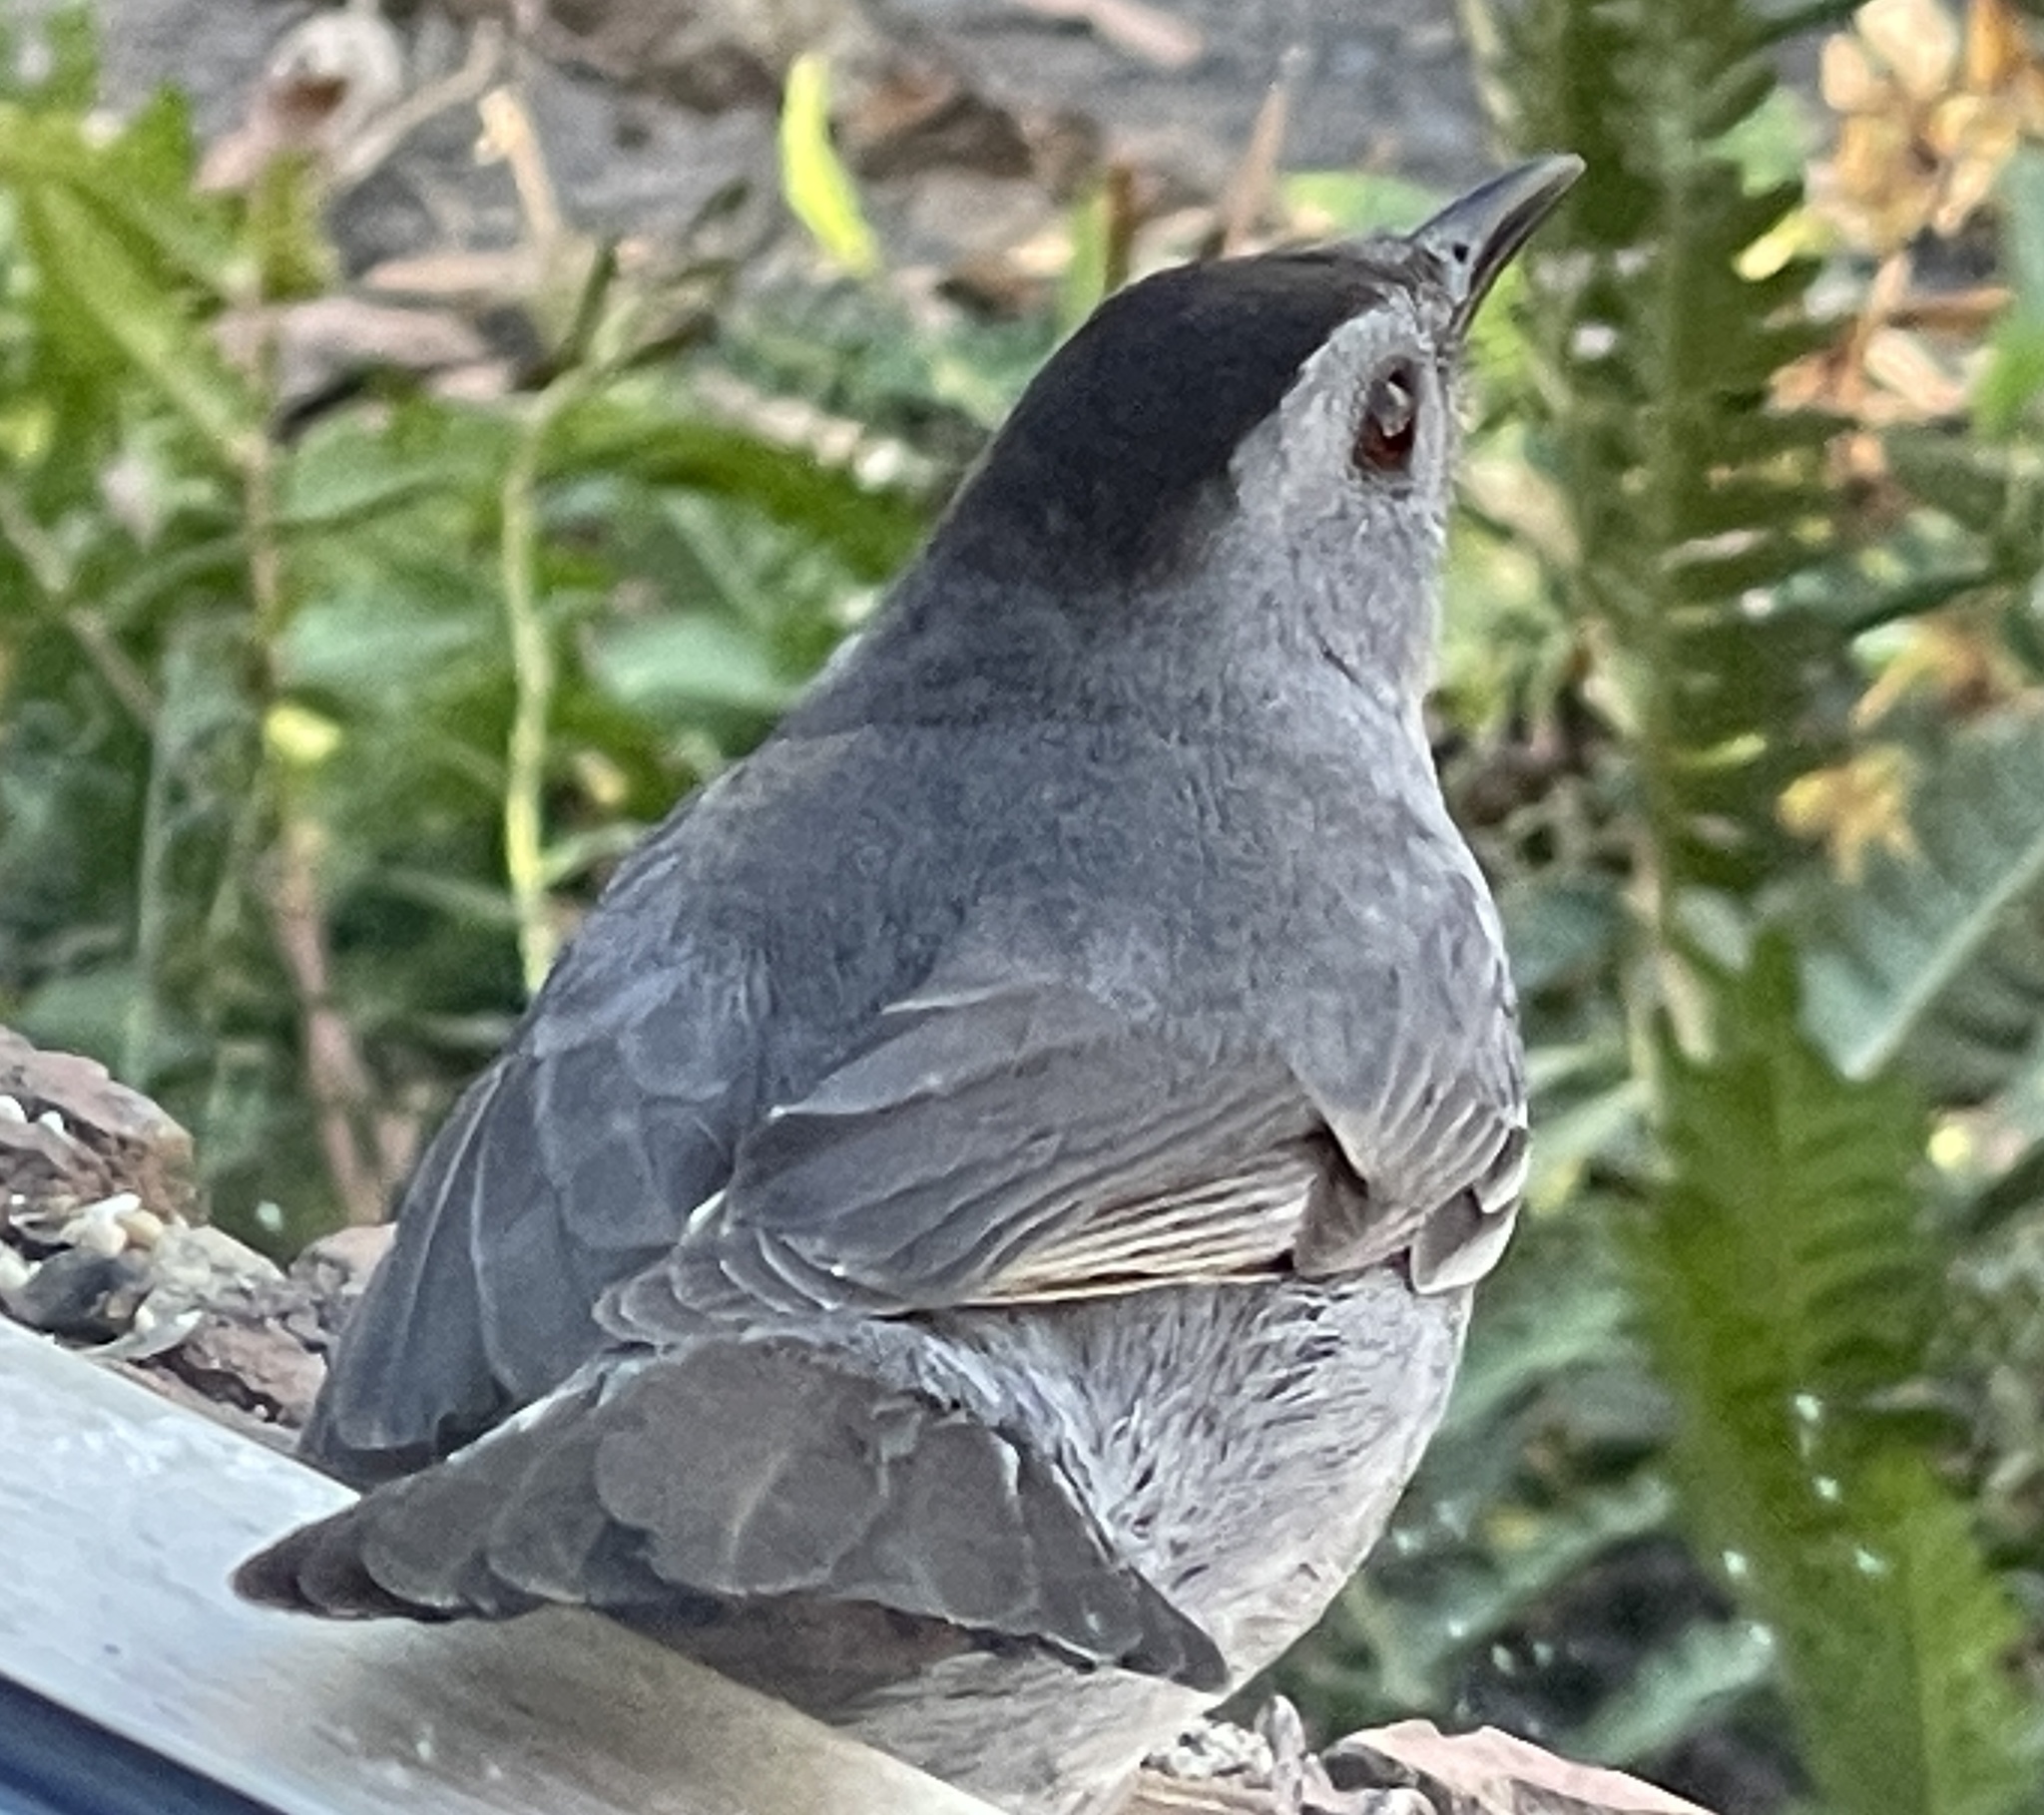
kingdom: Animalia
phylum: Chordata
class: Aves
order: Passeriformes
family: Mimidae
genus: Dumetella
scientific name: Dumetella carolinensis
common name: Gray catbird
